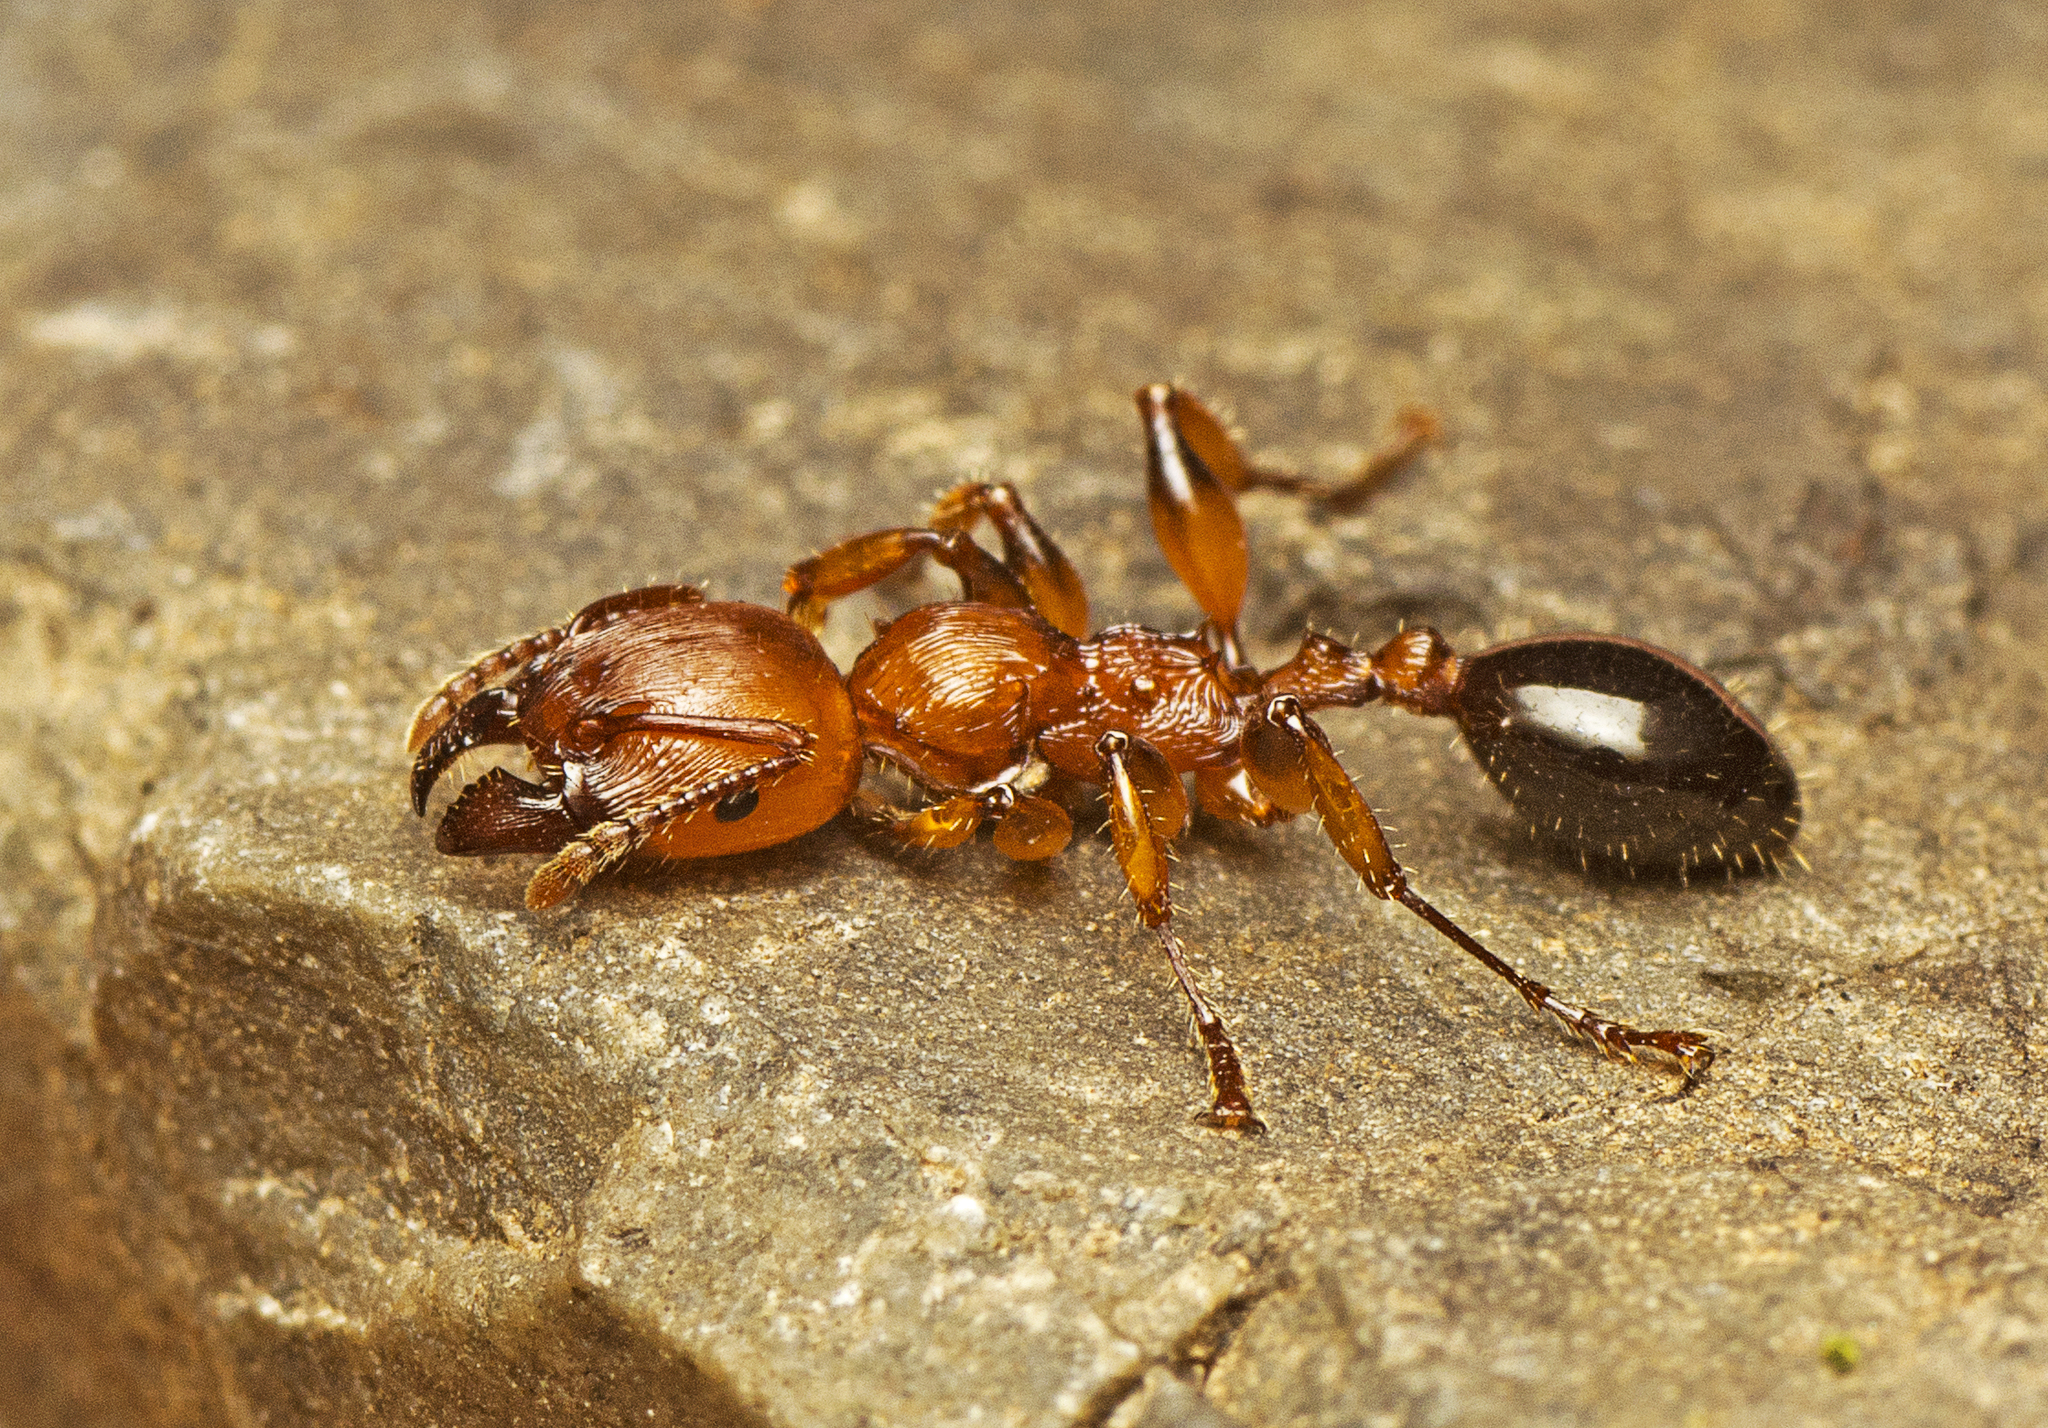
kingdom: Animalia
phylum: Arthropoda
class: Insecta
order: Hymenoptera
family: Formicidae
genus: Podomyrma
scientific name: Podomyrma gratiosa
